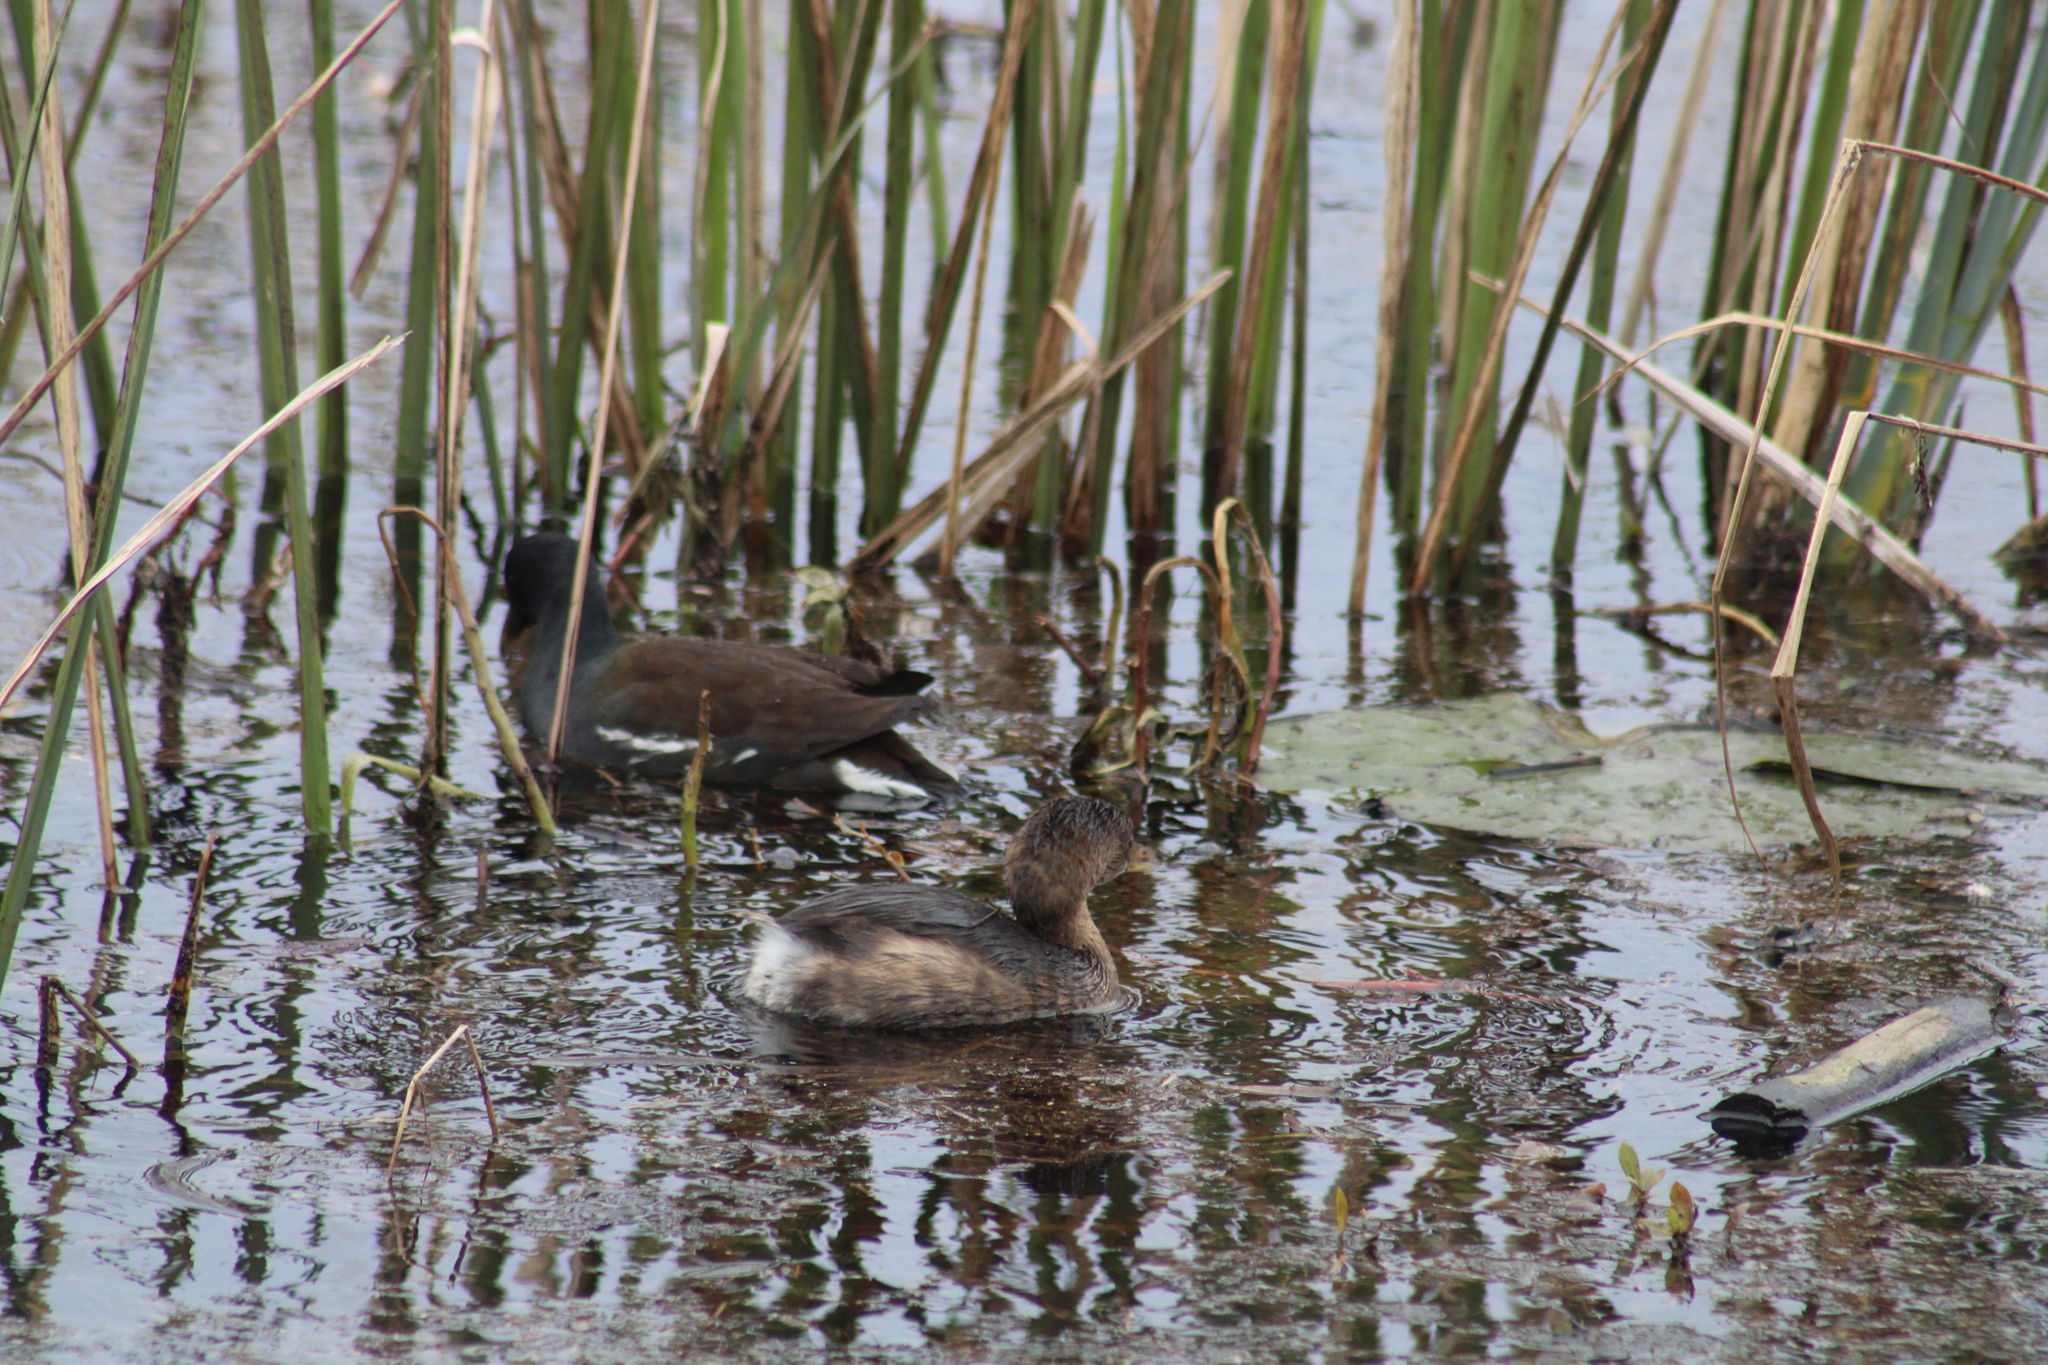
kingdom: Animalia
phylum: Chordata
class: Aves
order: Gruiformes
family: Rallidae
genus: Gallinula
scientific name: Gallinula chloropus
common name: Common moorhen
